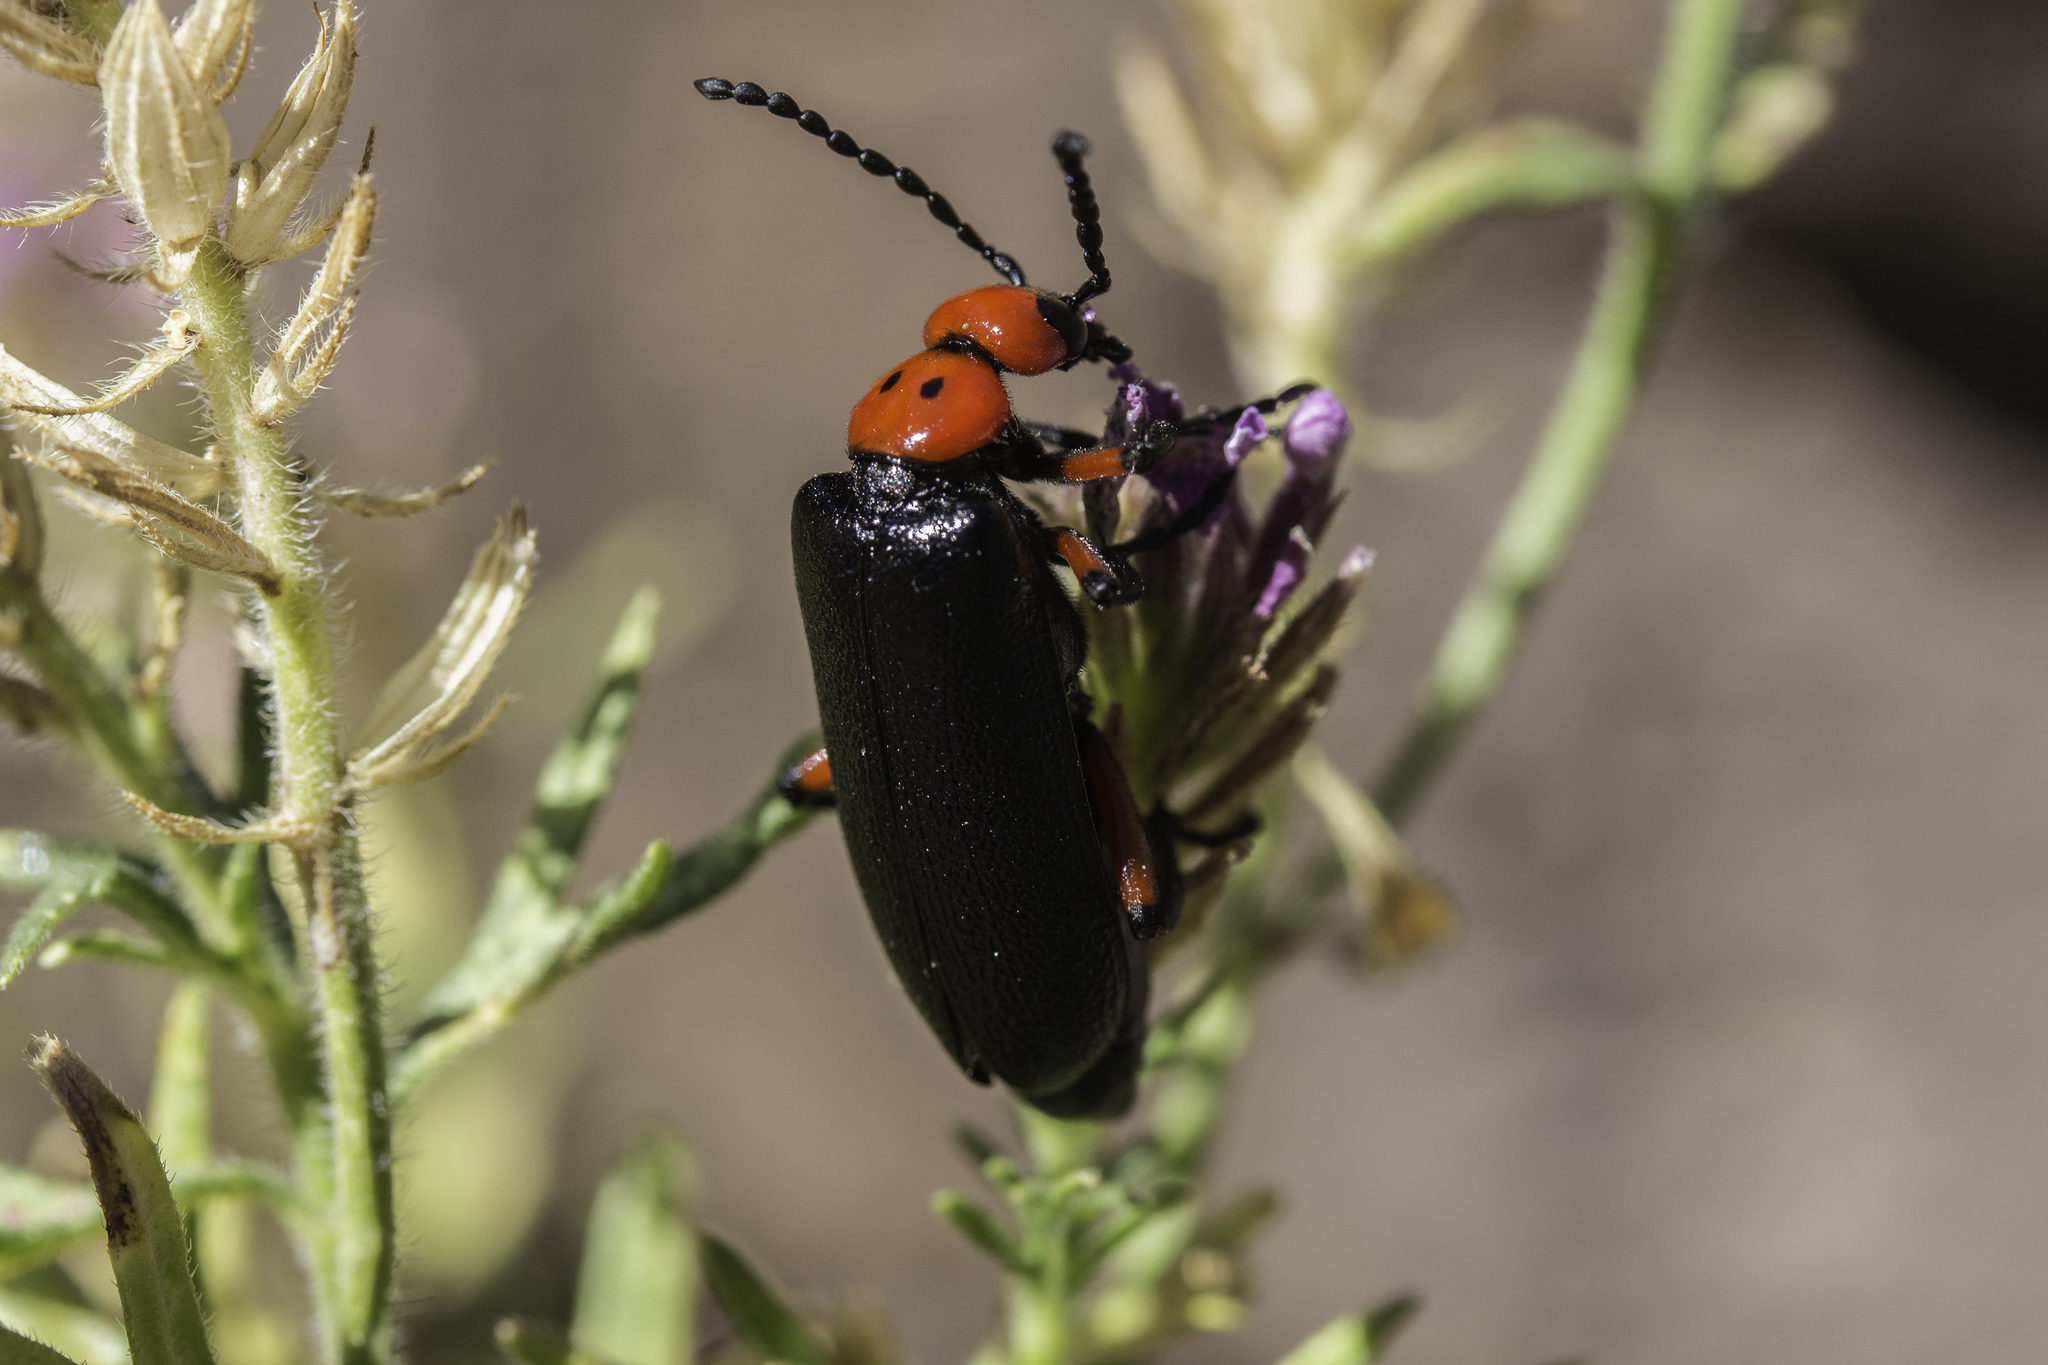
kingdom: Animalia
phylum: Arthropoda
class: Insecta
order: Coleoptera
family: Meloidae
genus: Lytta
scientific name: Lytta deserticola
